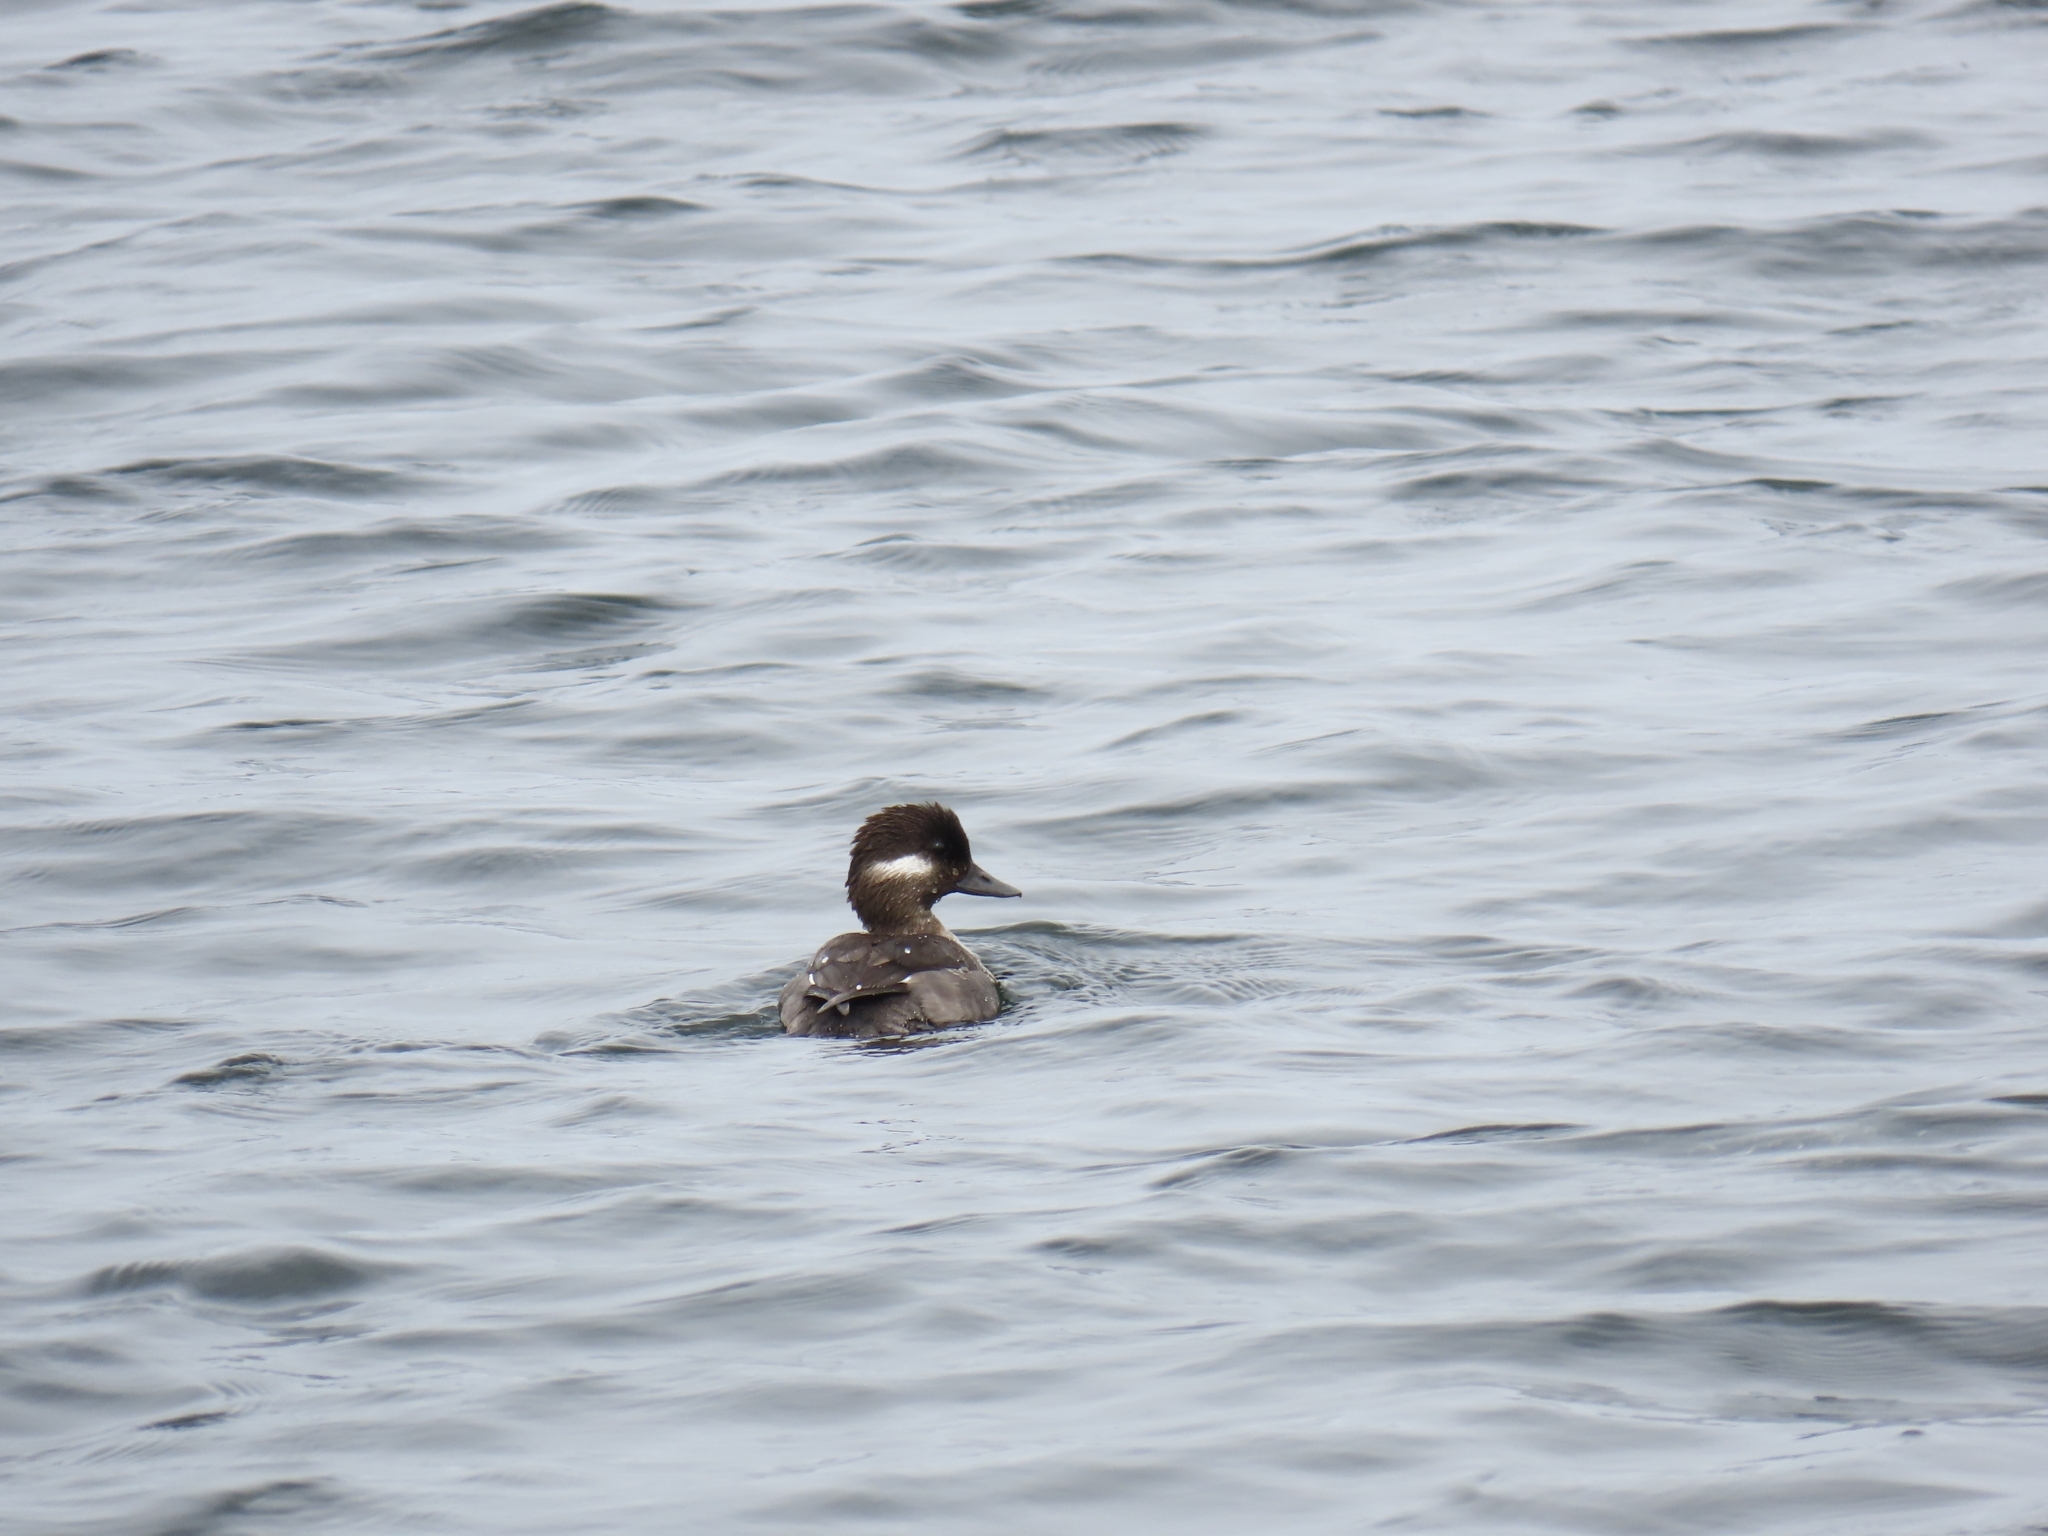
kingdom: Animalia
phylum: Chordata
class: Aves
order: Anseriformes
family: Anatidae
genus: Bucephala
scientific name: Bucephala albeola
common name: Bufflehead
